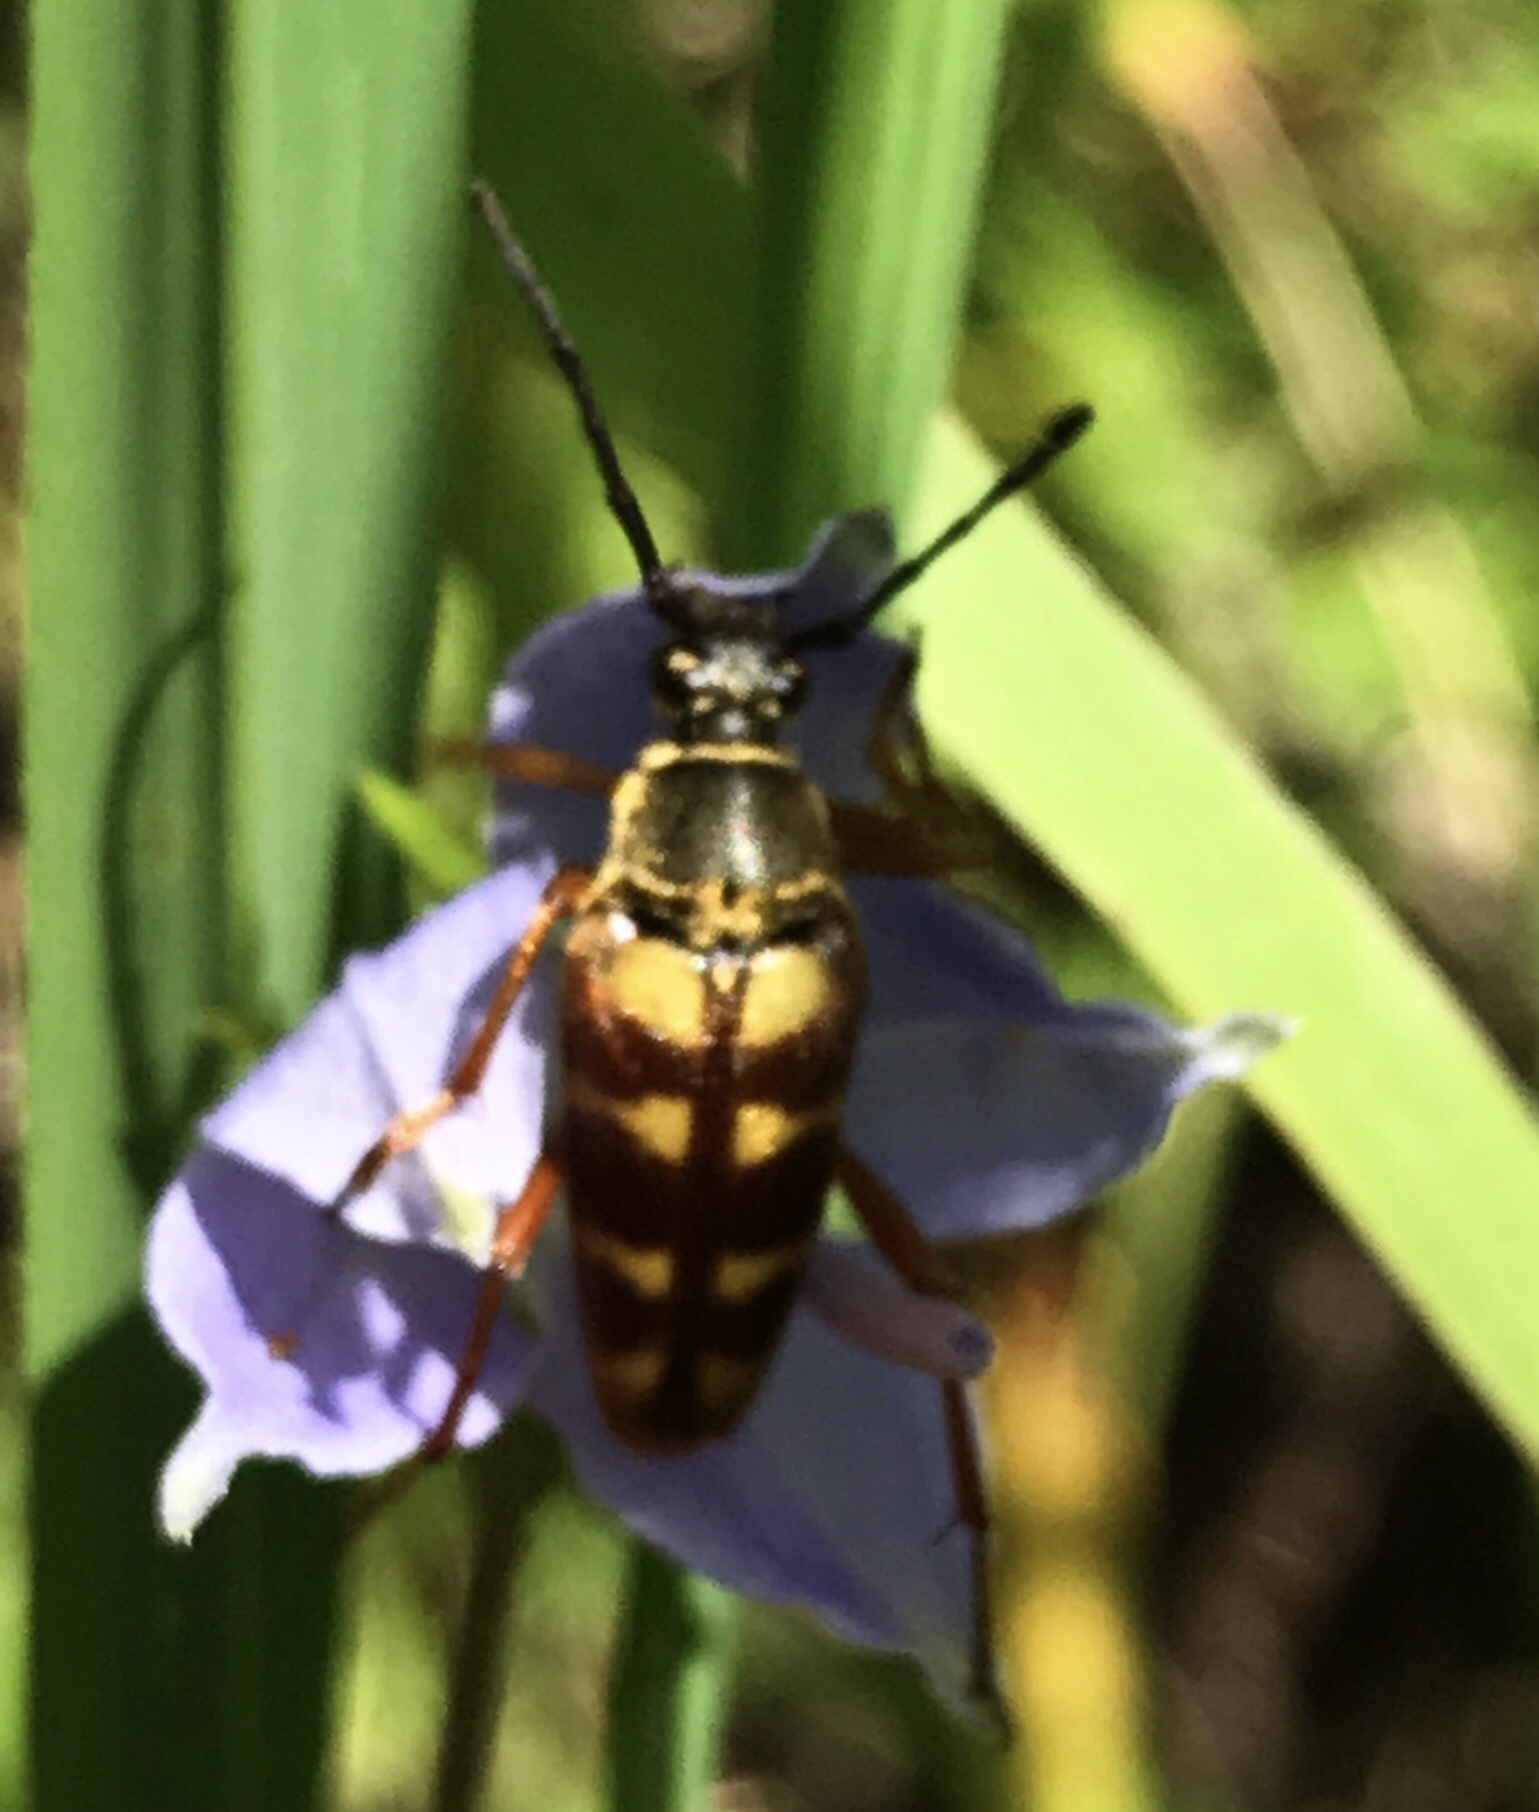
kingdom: Animalia
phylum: Arthropoda
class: Insecta
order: Coleoptera
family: Cerambycidae
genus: Typocerus
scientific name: Typocerus velutinus
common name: Banded longhorn beetle
